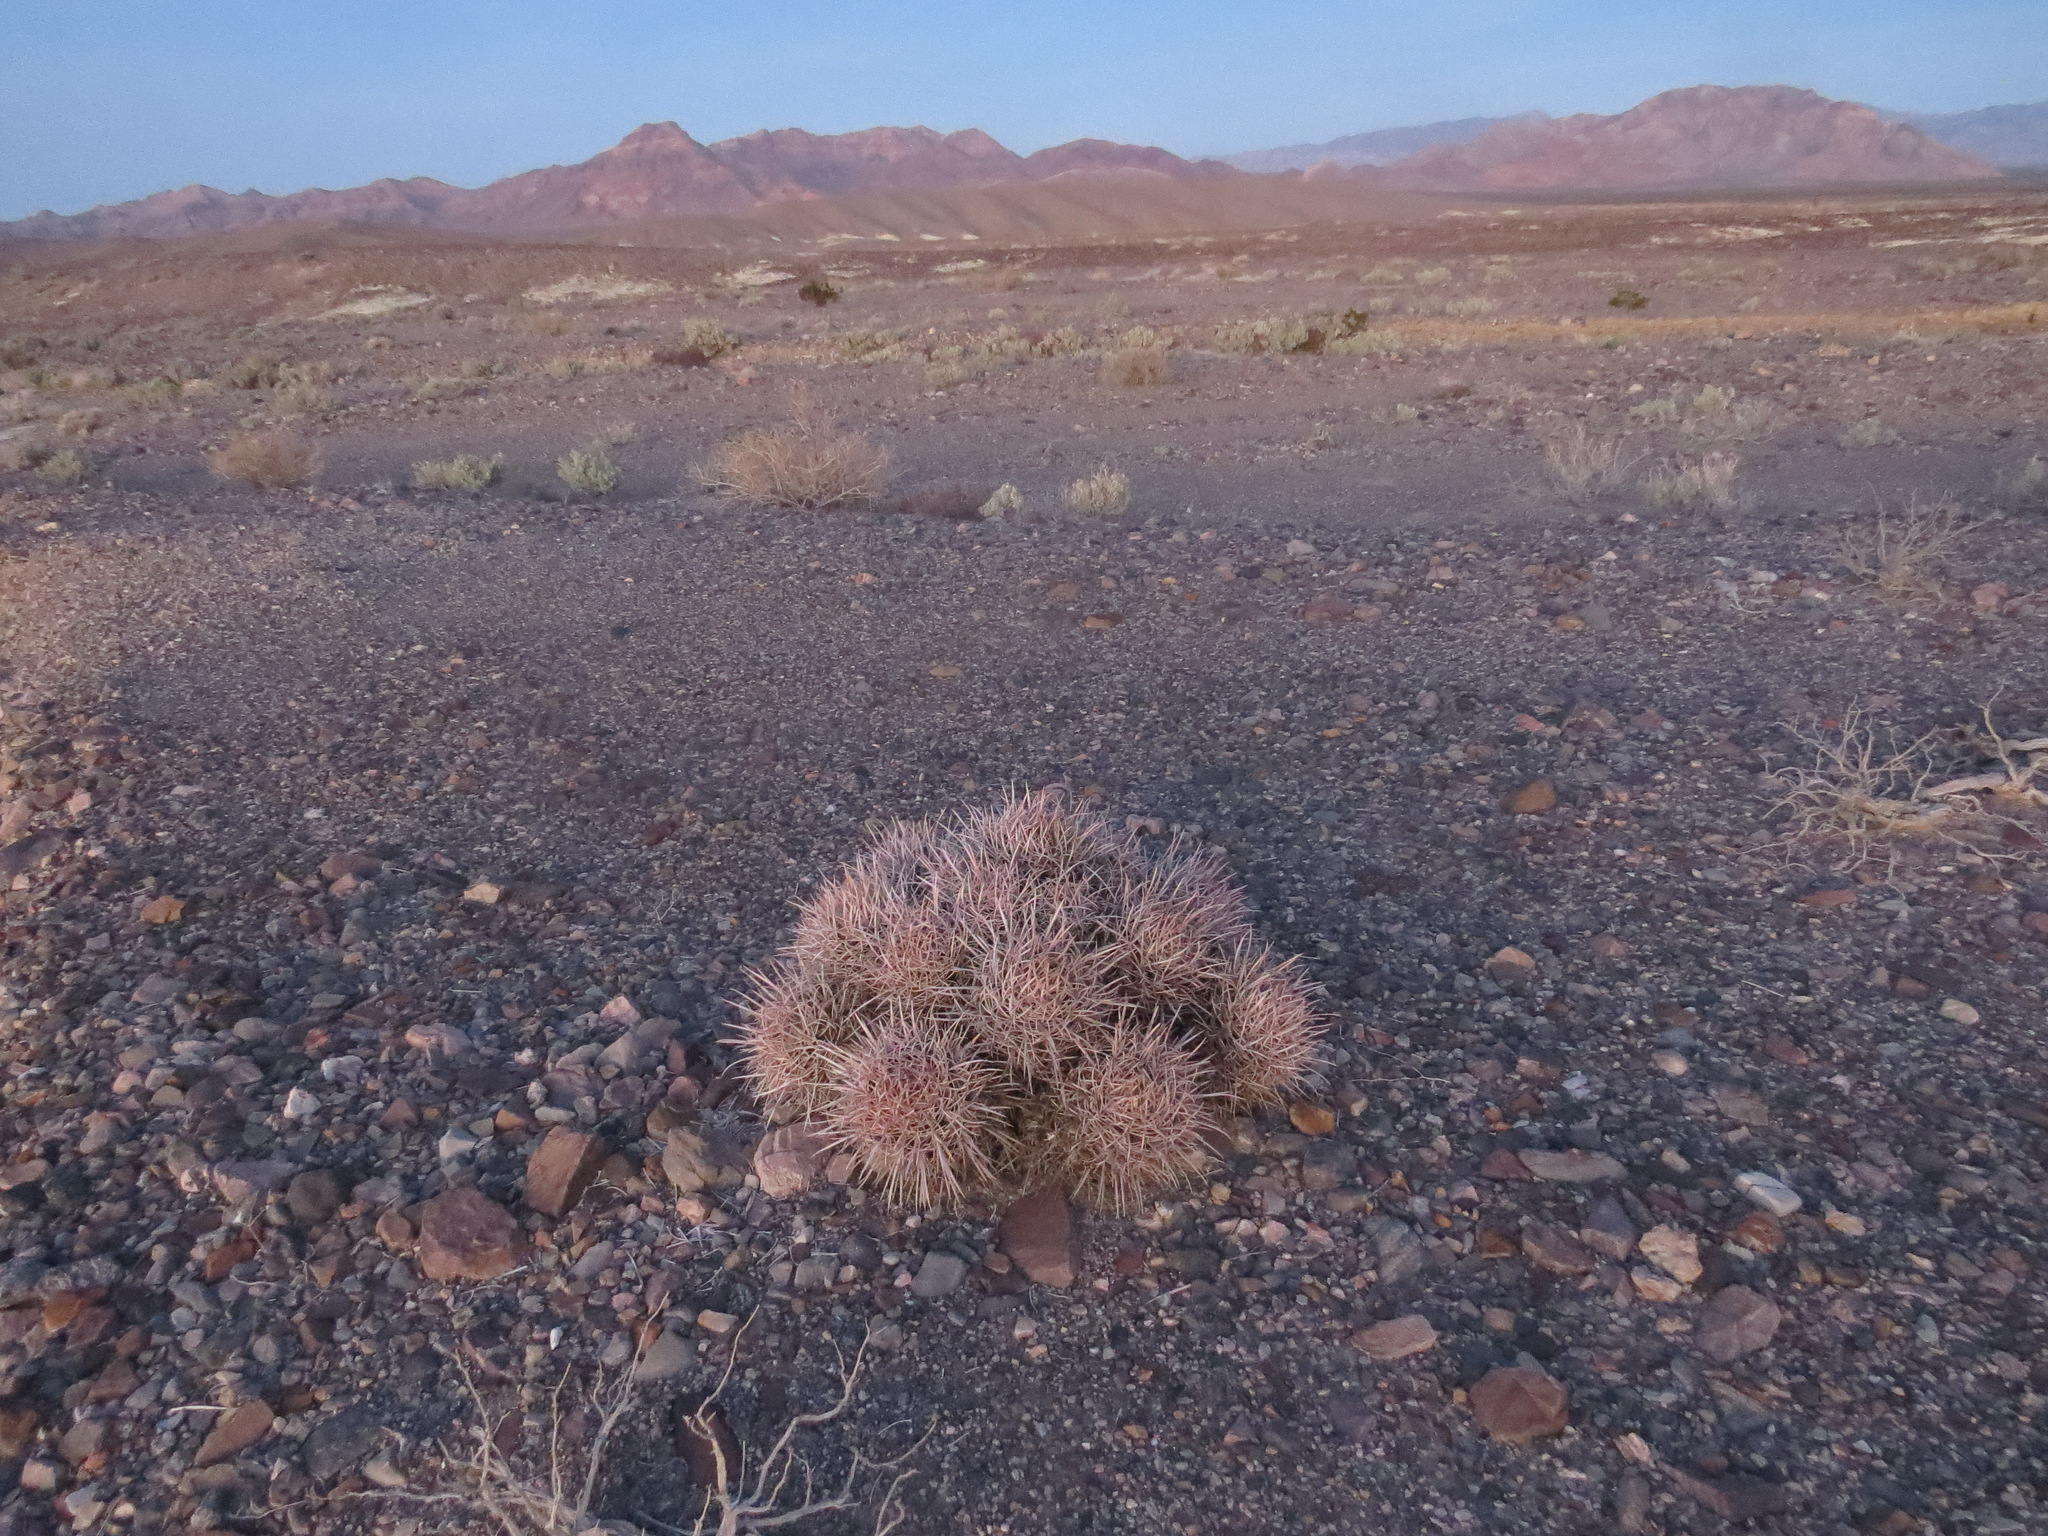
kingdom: Plantae
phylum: Tracheophyta
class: Magnoliopsida
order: Caryophyllales
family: Cactaceae
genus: Echinocactus
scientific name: Echinocactus polycephalus
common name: Cottontop cactus
